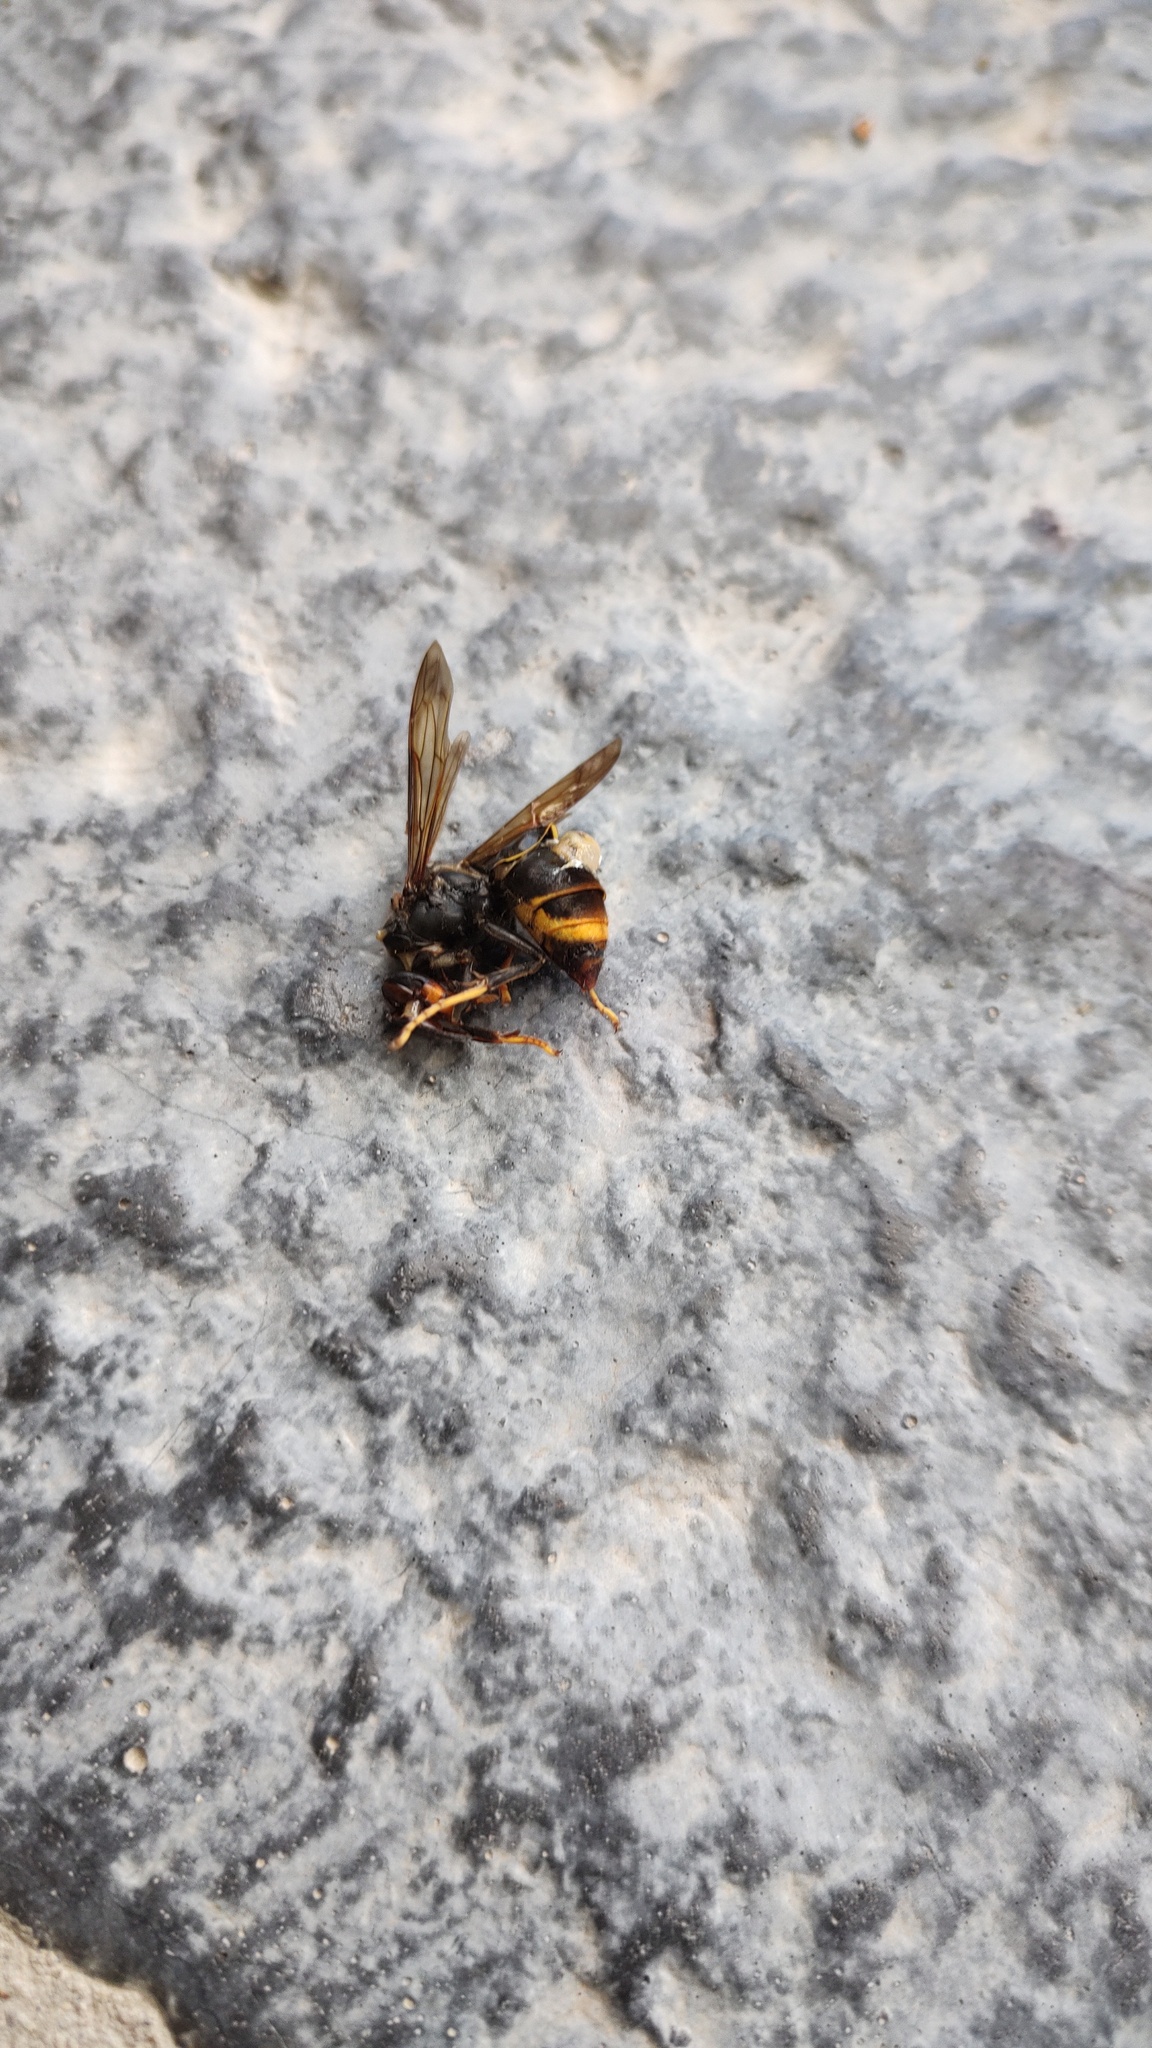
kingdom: Animalia
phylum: Arthropoda
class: Insecta
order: Hymenoptera
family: Vespidae
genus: Vespa
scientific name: Vespa velutina
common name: Asian hornet
